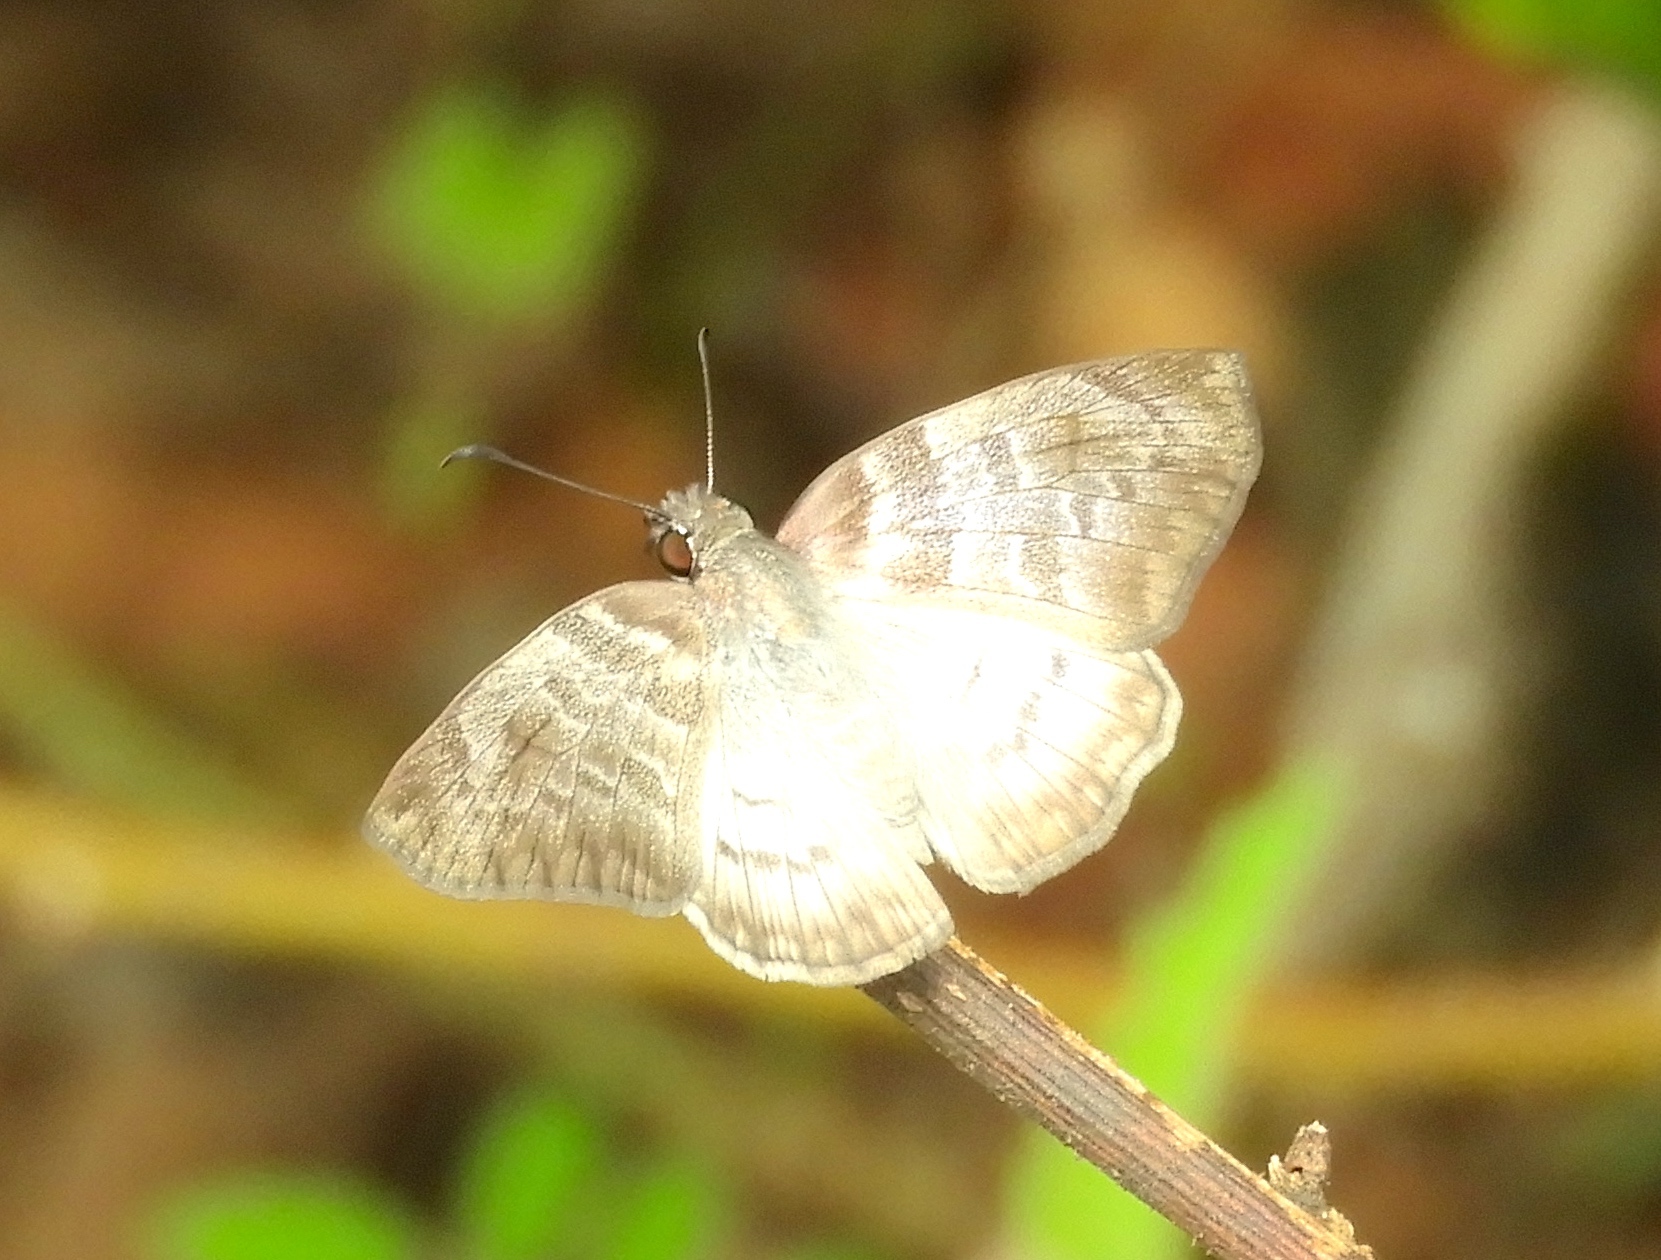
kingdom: Animalia
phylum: Arthropoda
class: Insecta
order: Lepidoptera
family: Hesperiidae
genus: Mylon
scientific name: Mylon pelopidas
